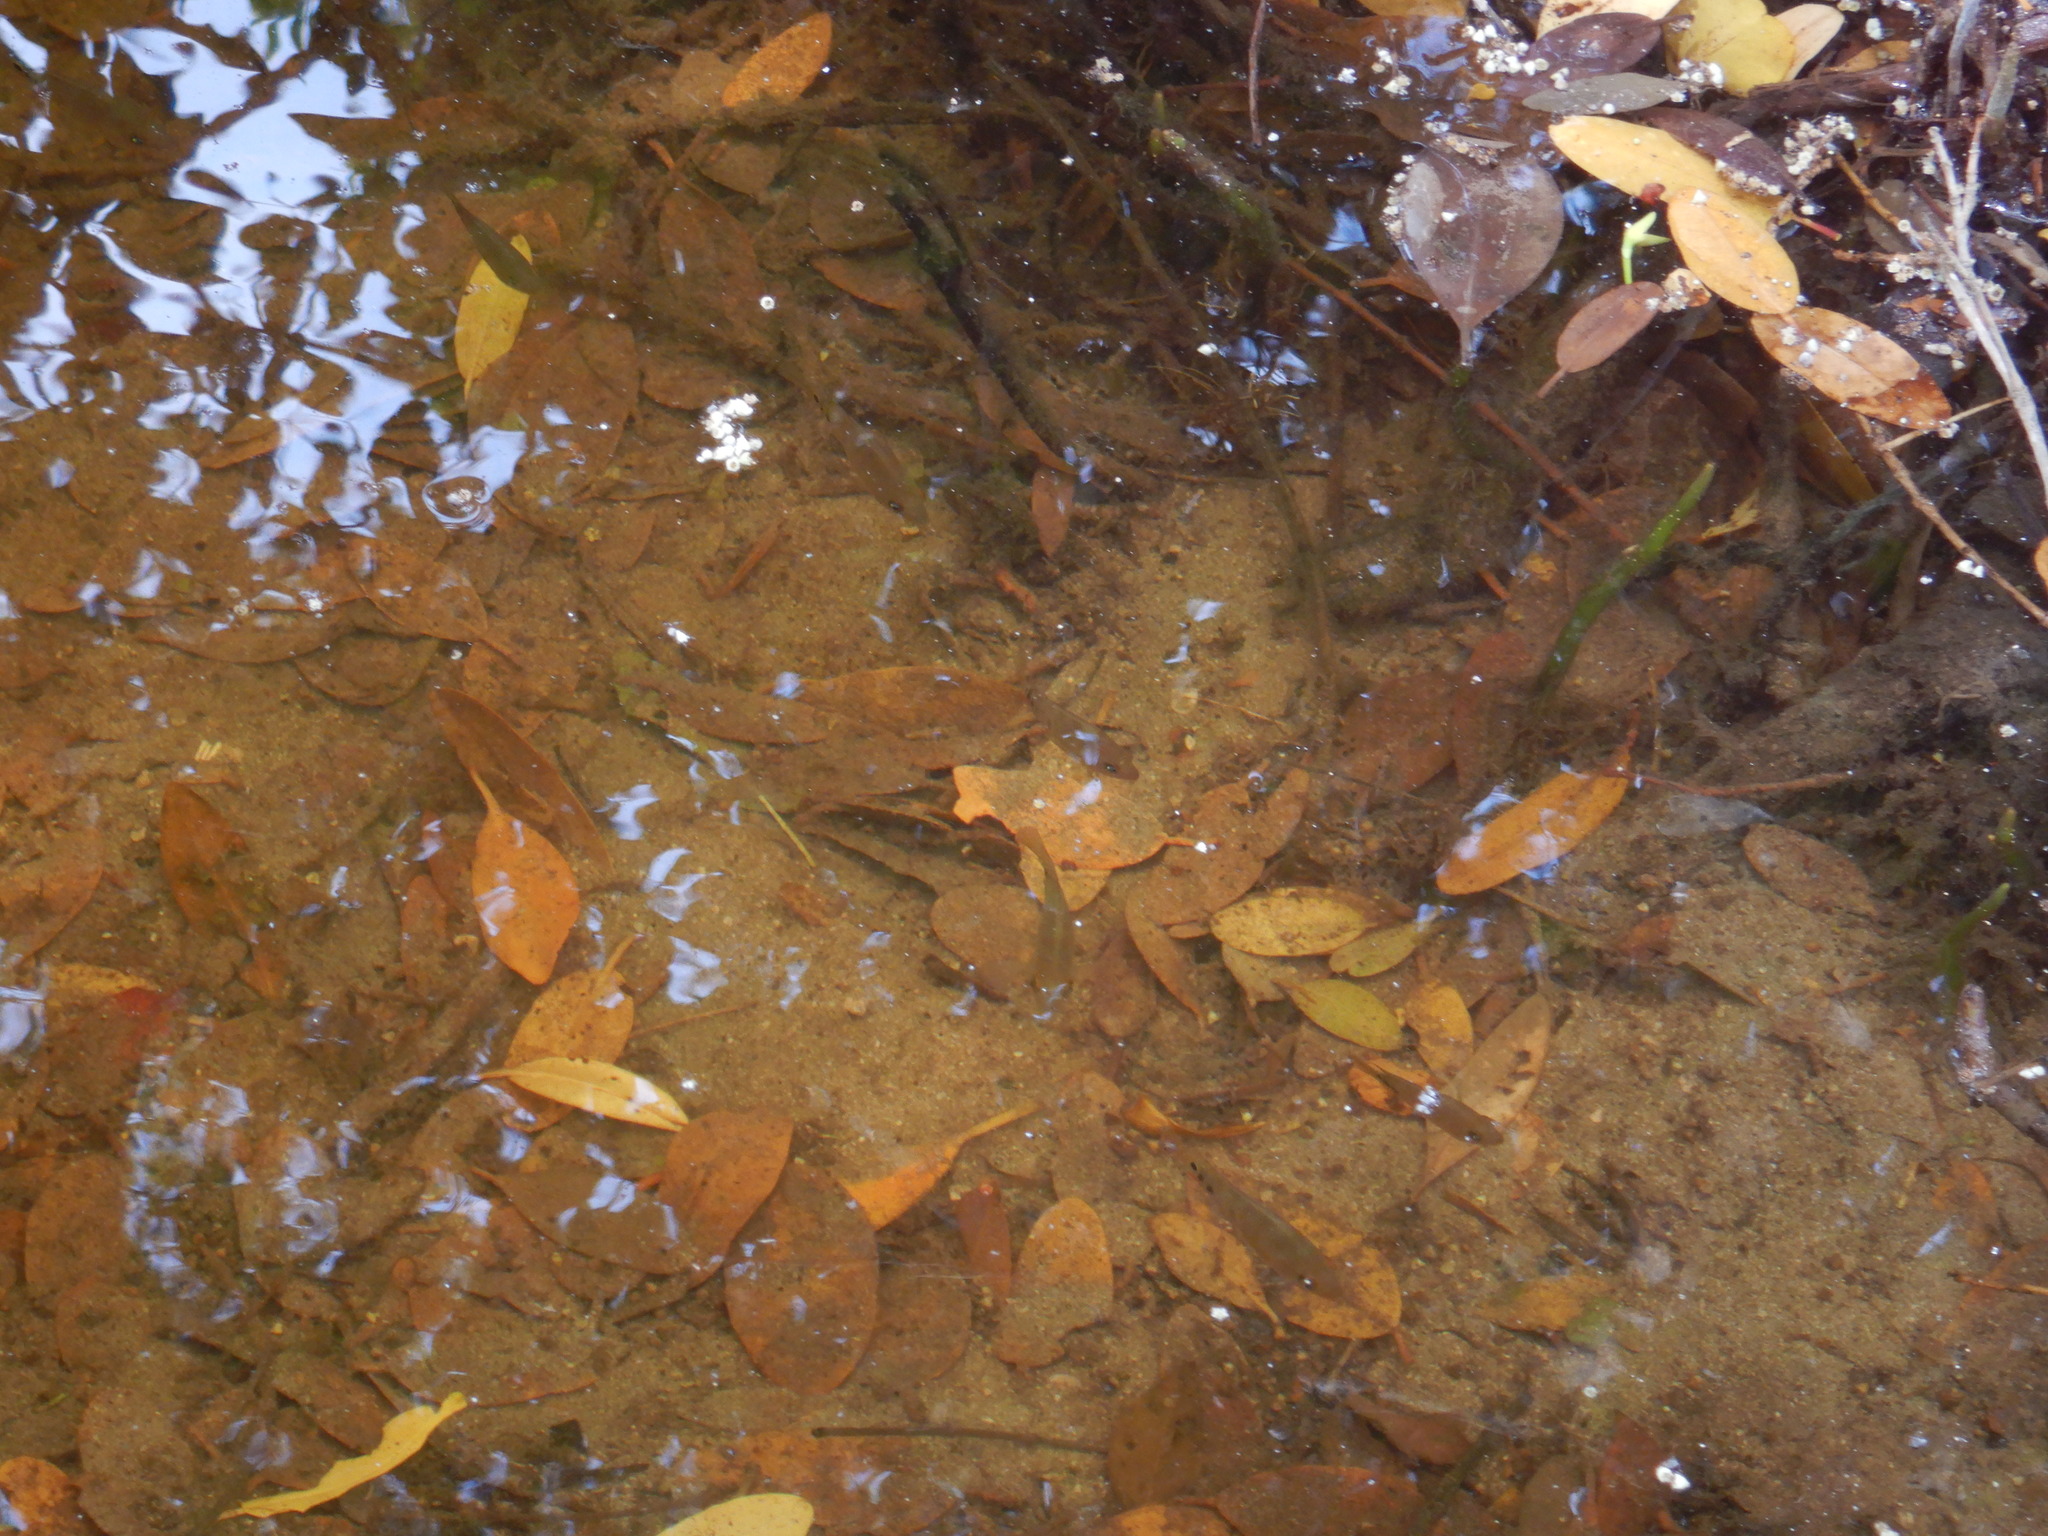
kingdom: Animalia
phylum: Chordata
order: Perciformes
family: Cichlidae
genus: Mayaheros
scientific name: Mayaheros urophthalmus
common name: Mayan cichlid
